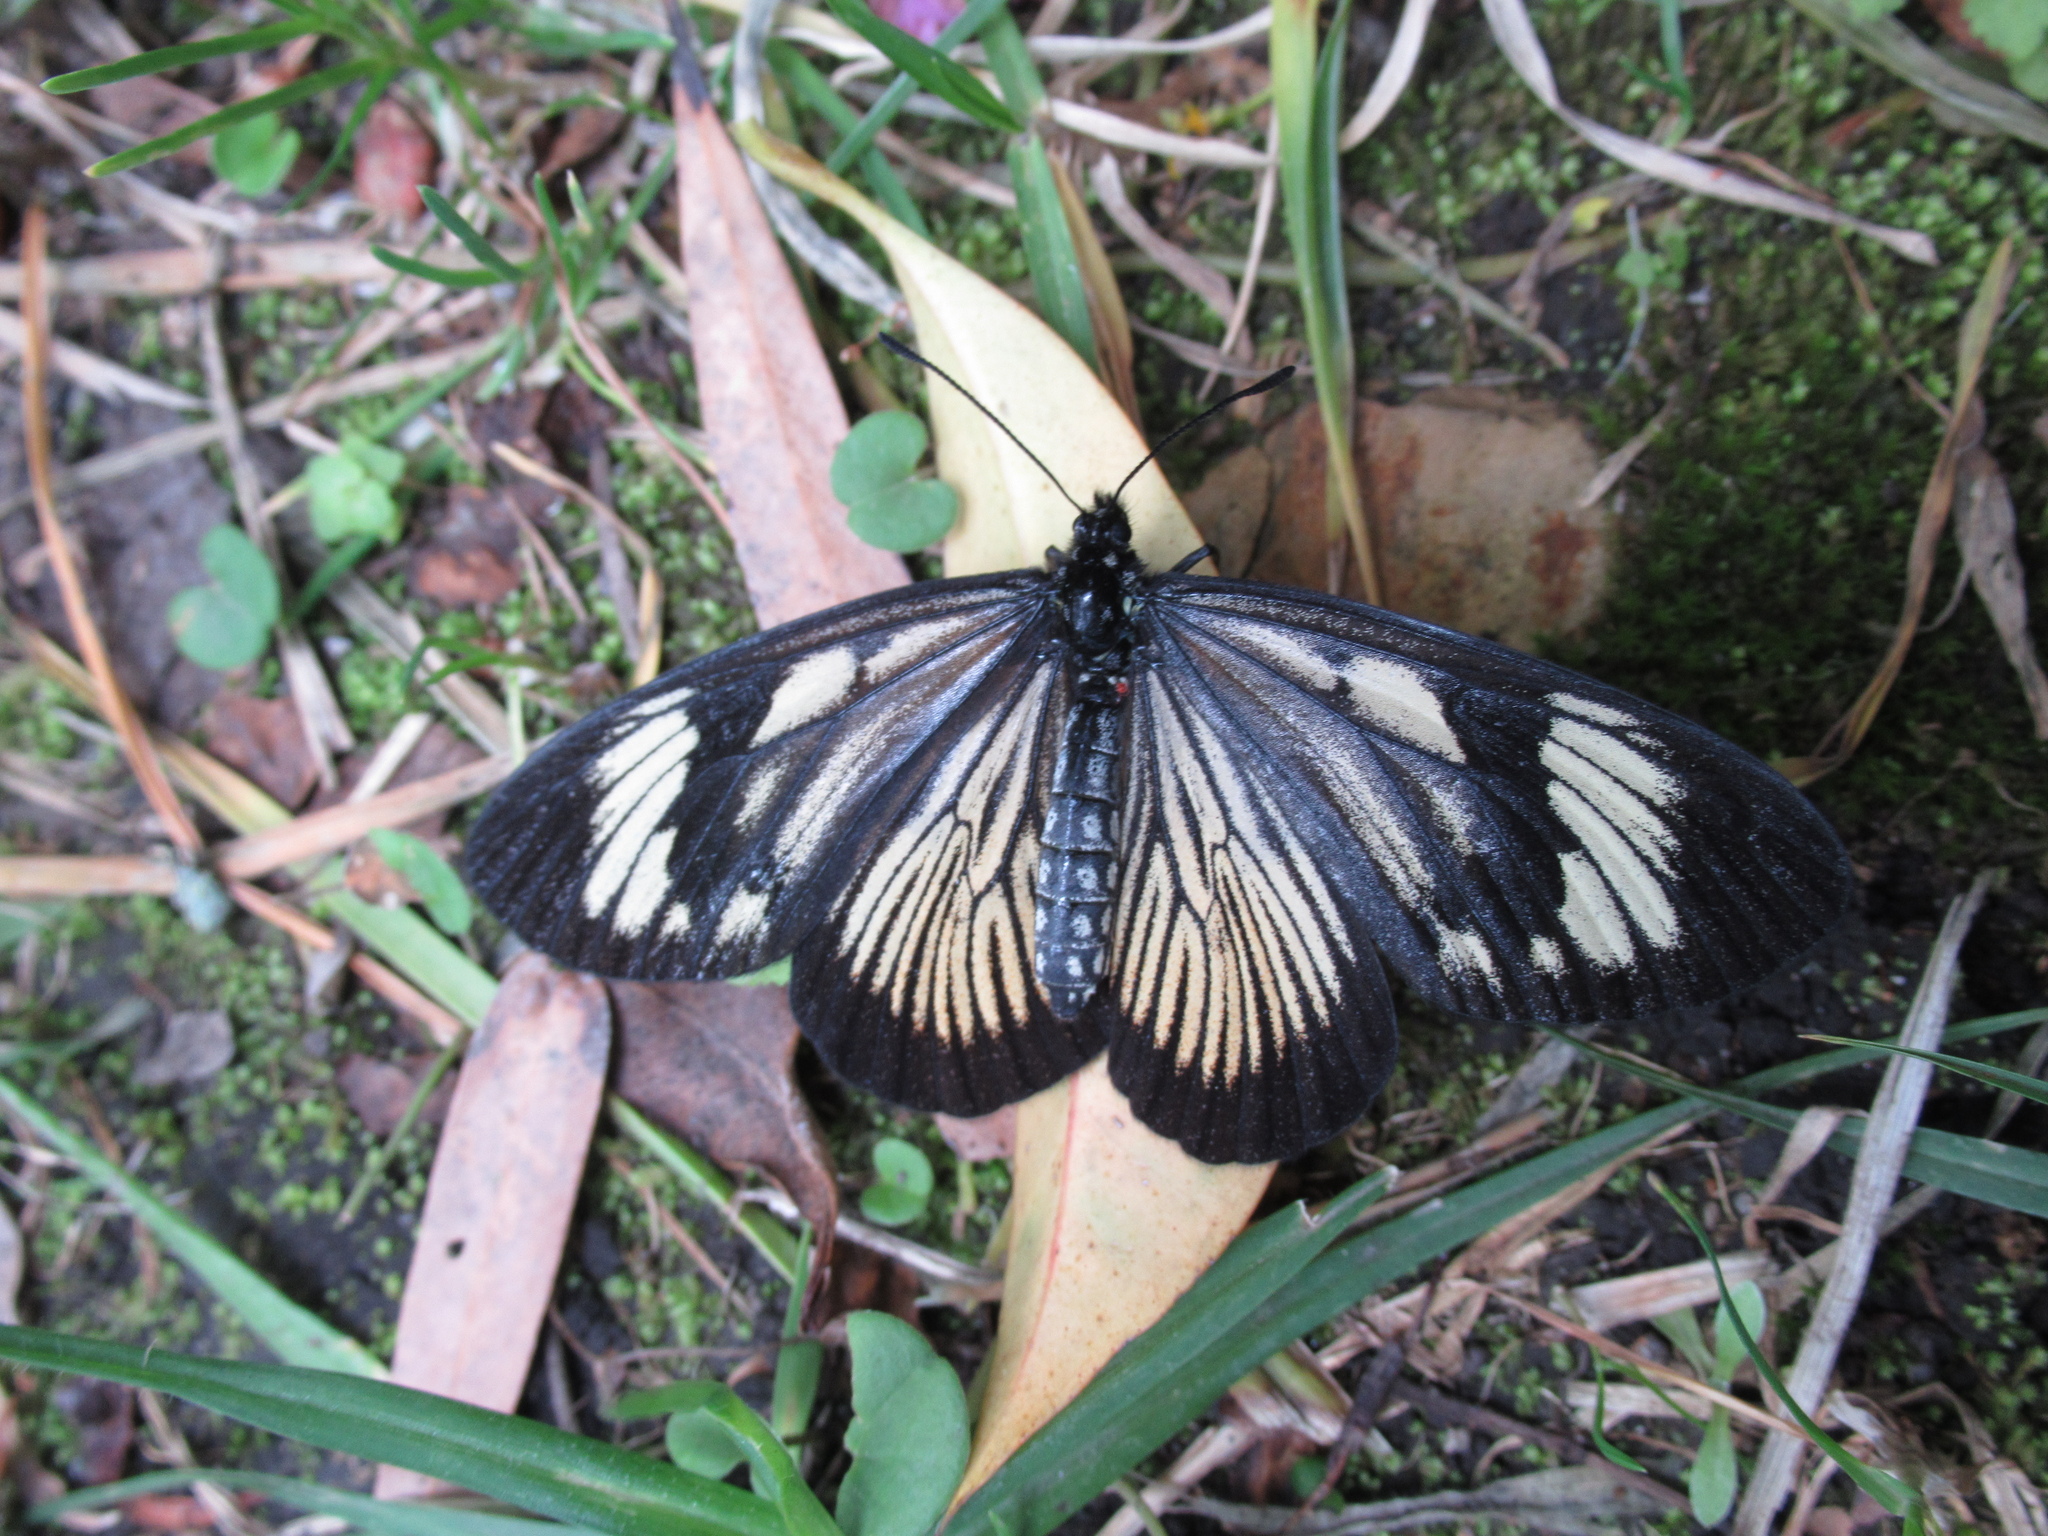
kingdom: Animalia
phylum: Arthropoda
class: Insecta
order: Lepidoptera
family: Nymphalidae
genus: Actinote
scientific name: Actinote anteas
